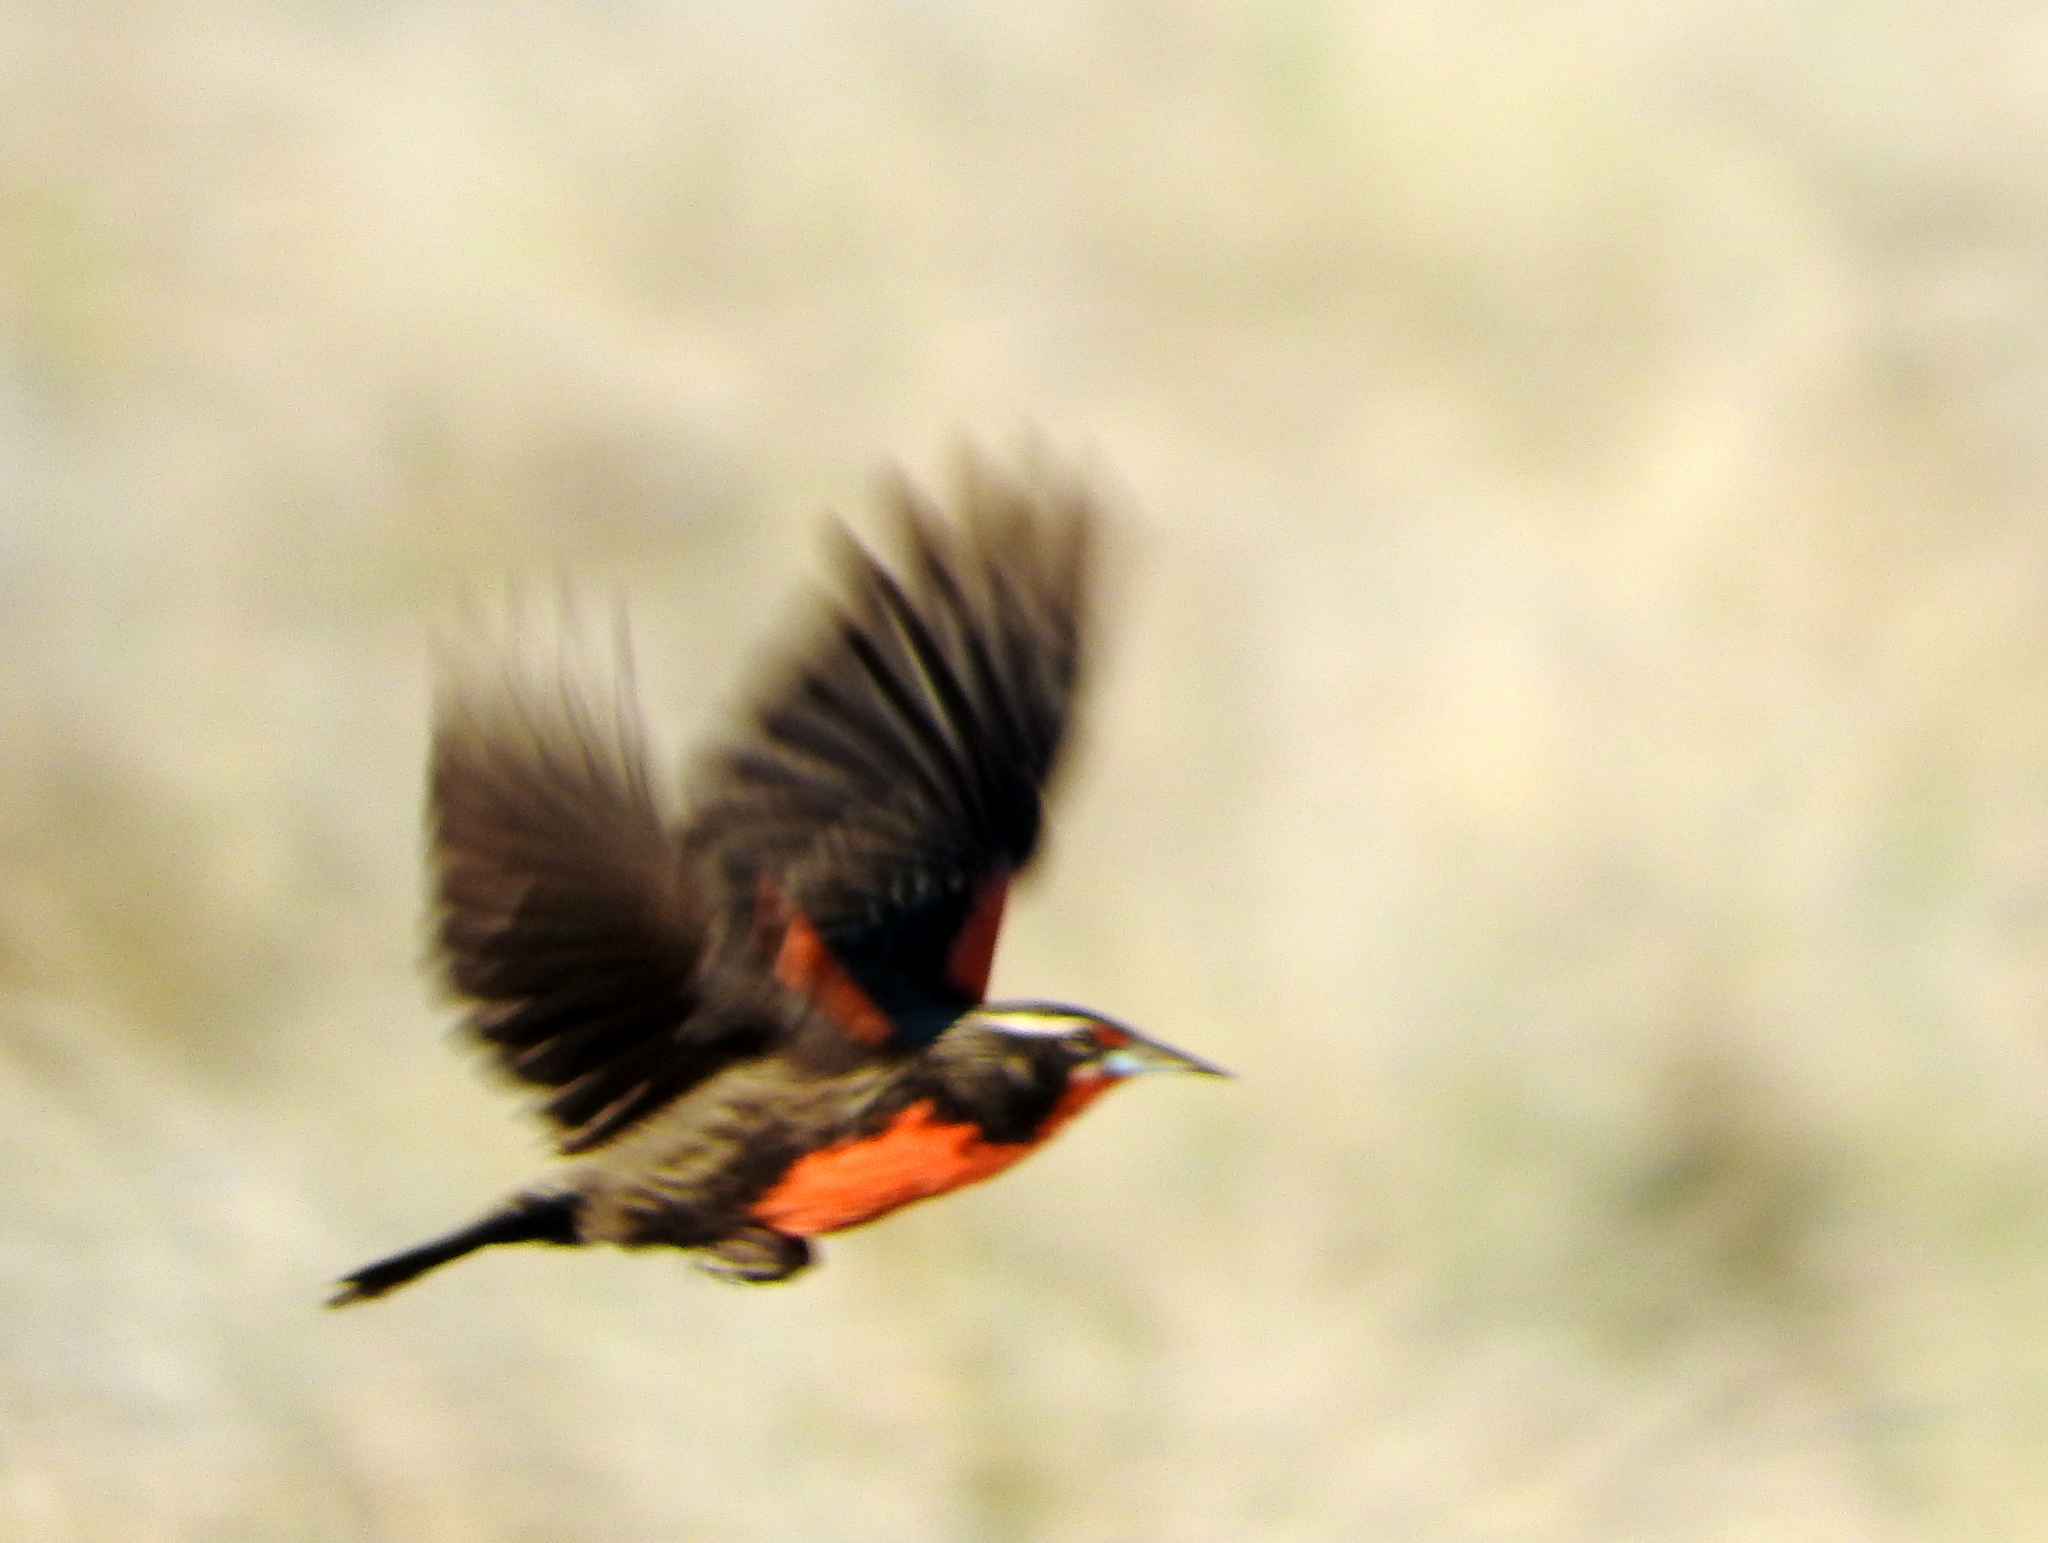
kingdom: Animalia
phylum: Chordata
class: Aves
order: Passeriformes
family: Icteridae
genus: Sturnella
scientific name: Sturnella defilippii
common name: Pampas meadowlark
